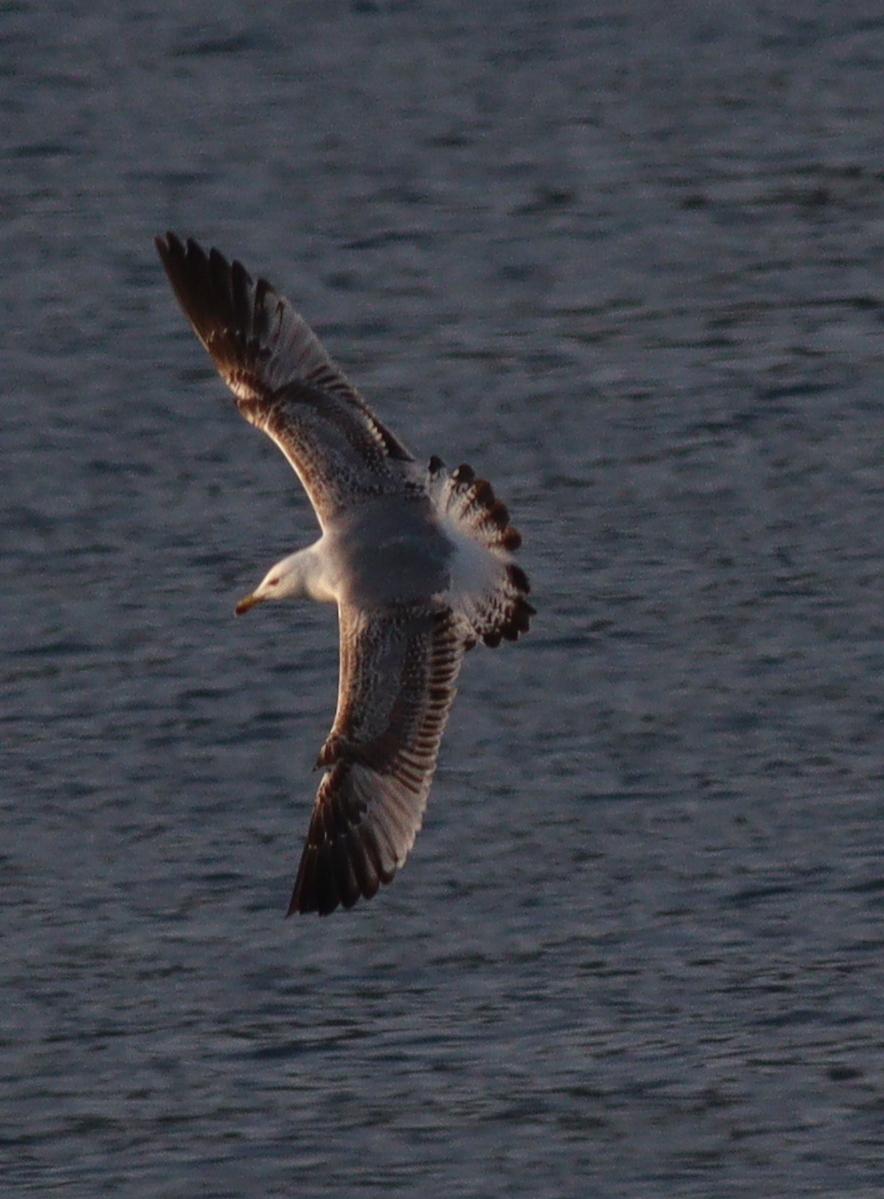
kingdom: Animalia
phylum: Chordata
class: Aves
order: Charadriiformes
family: Laridae
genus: Larus
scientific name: Larus michahellis
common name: Yellow-legged gull
